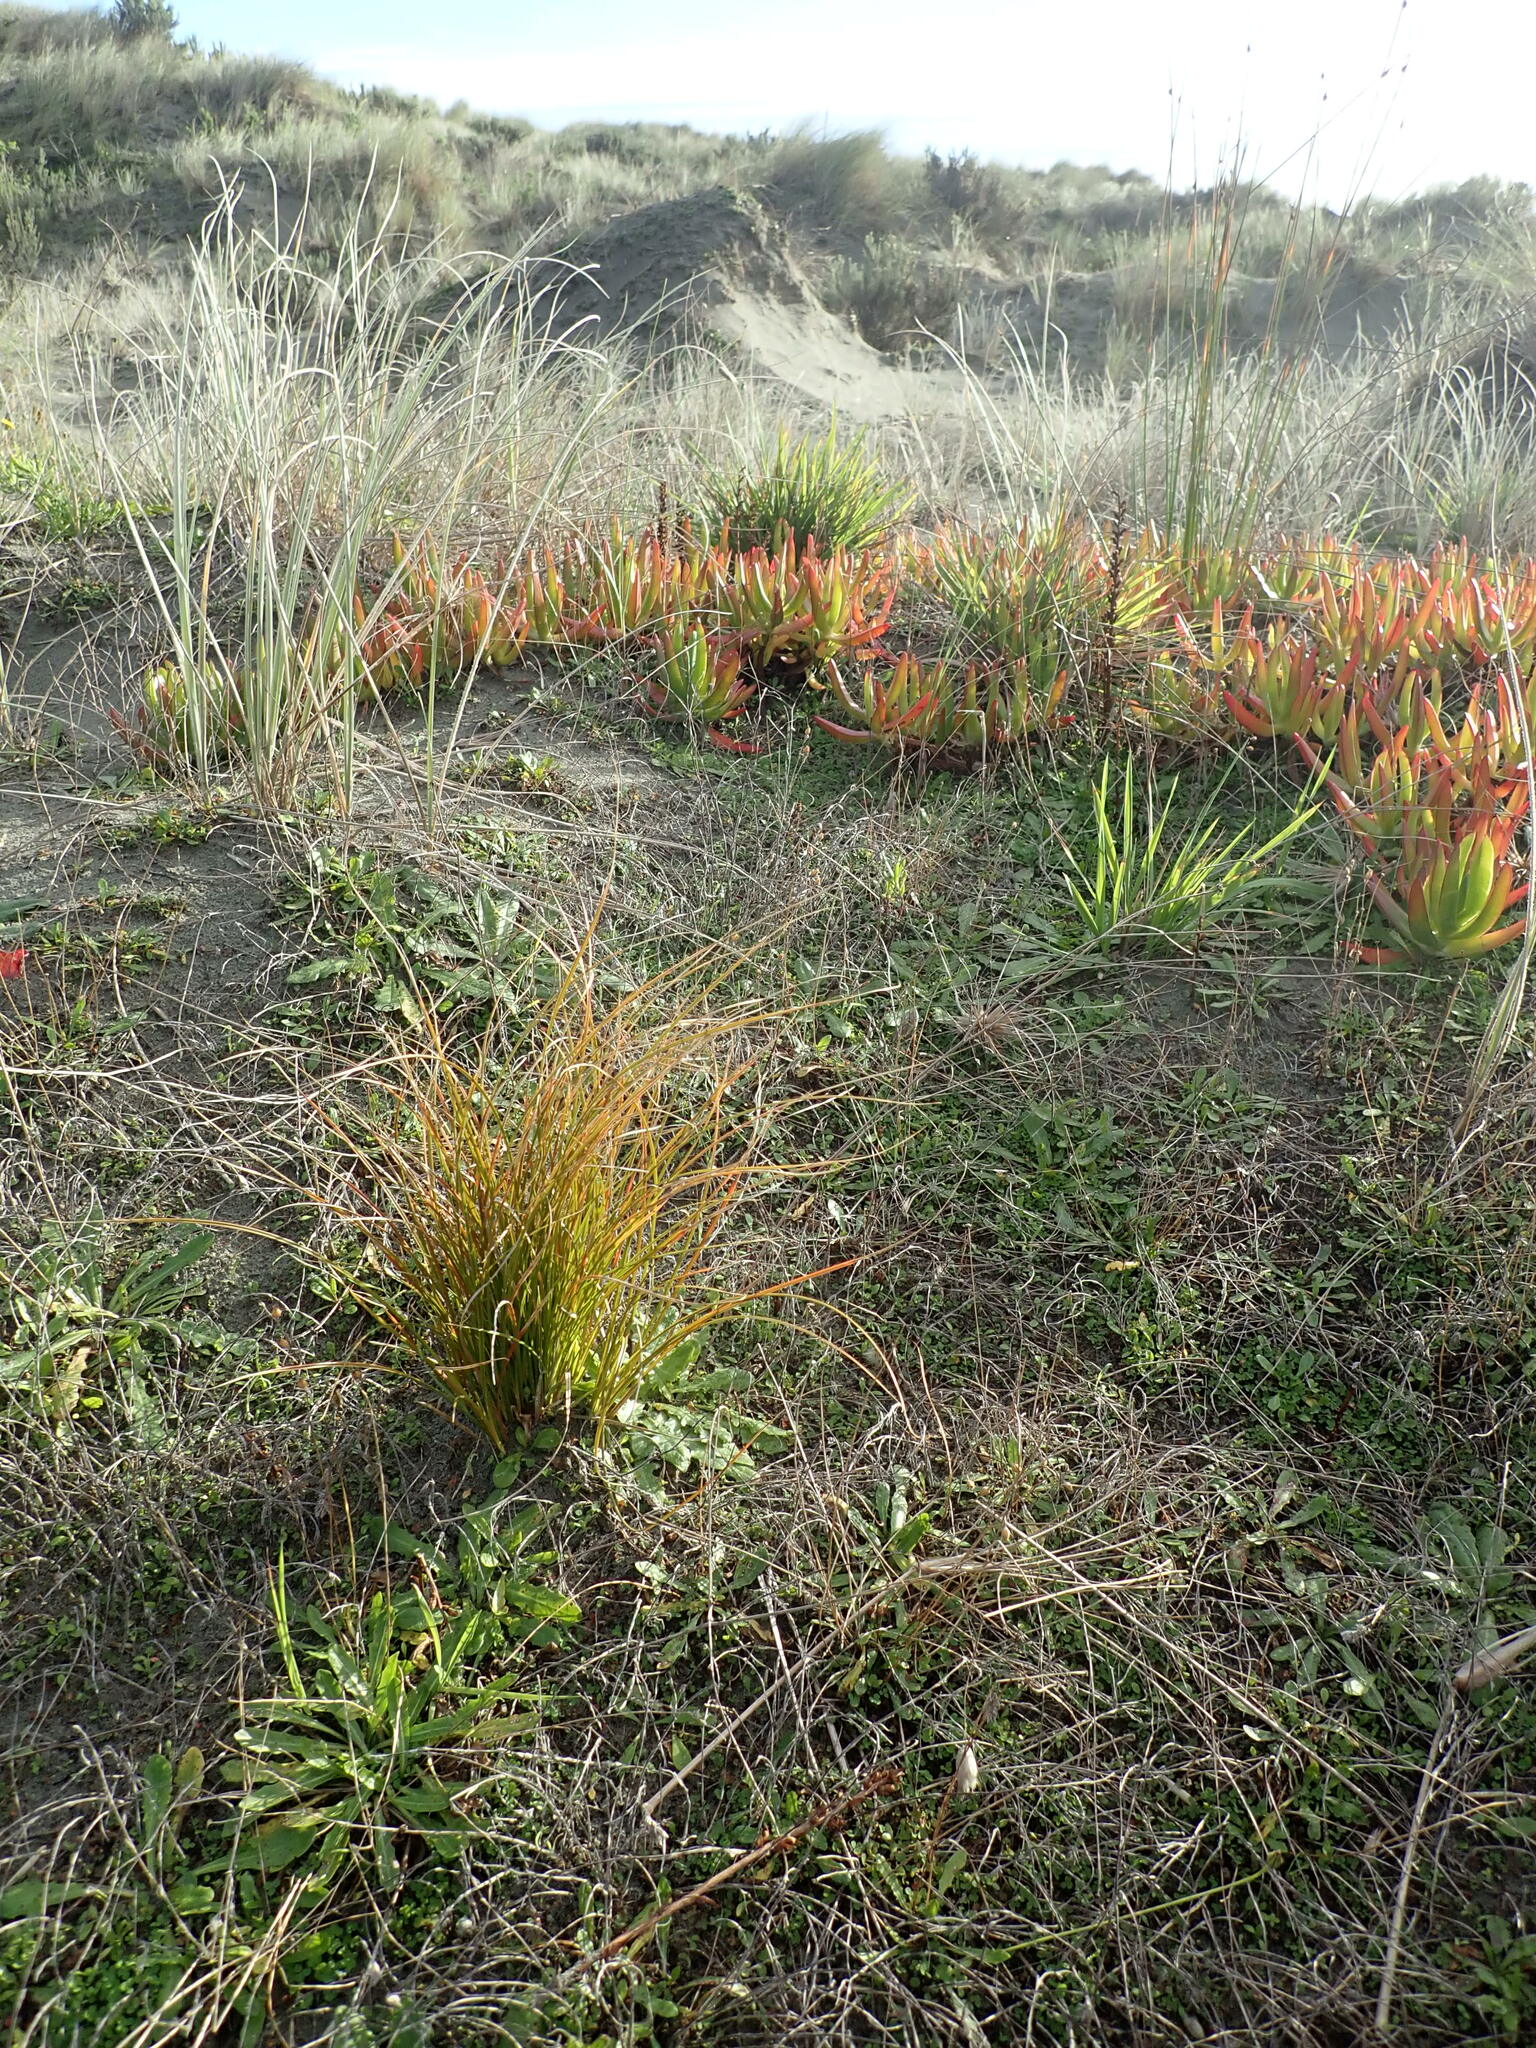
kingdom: Plantae
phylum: Tracheophyta
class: Liliopsida
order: Poales
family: Cyperaceae
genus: Carex
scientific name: Carex testacea
